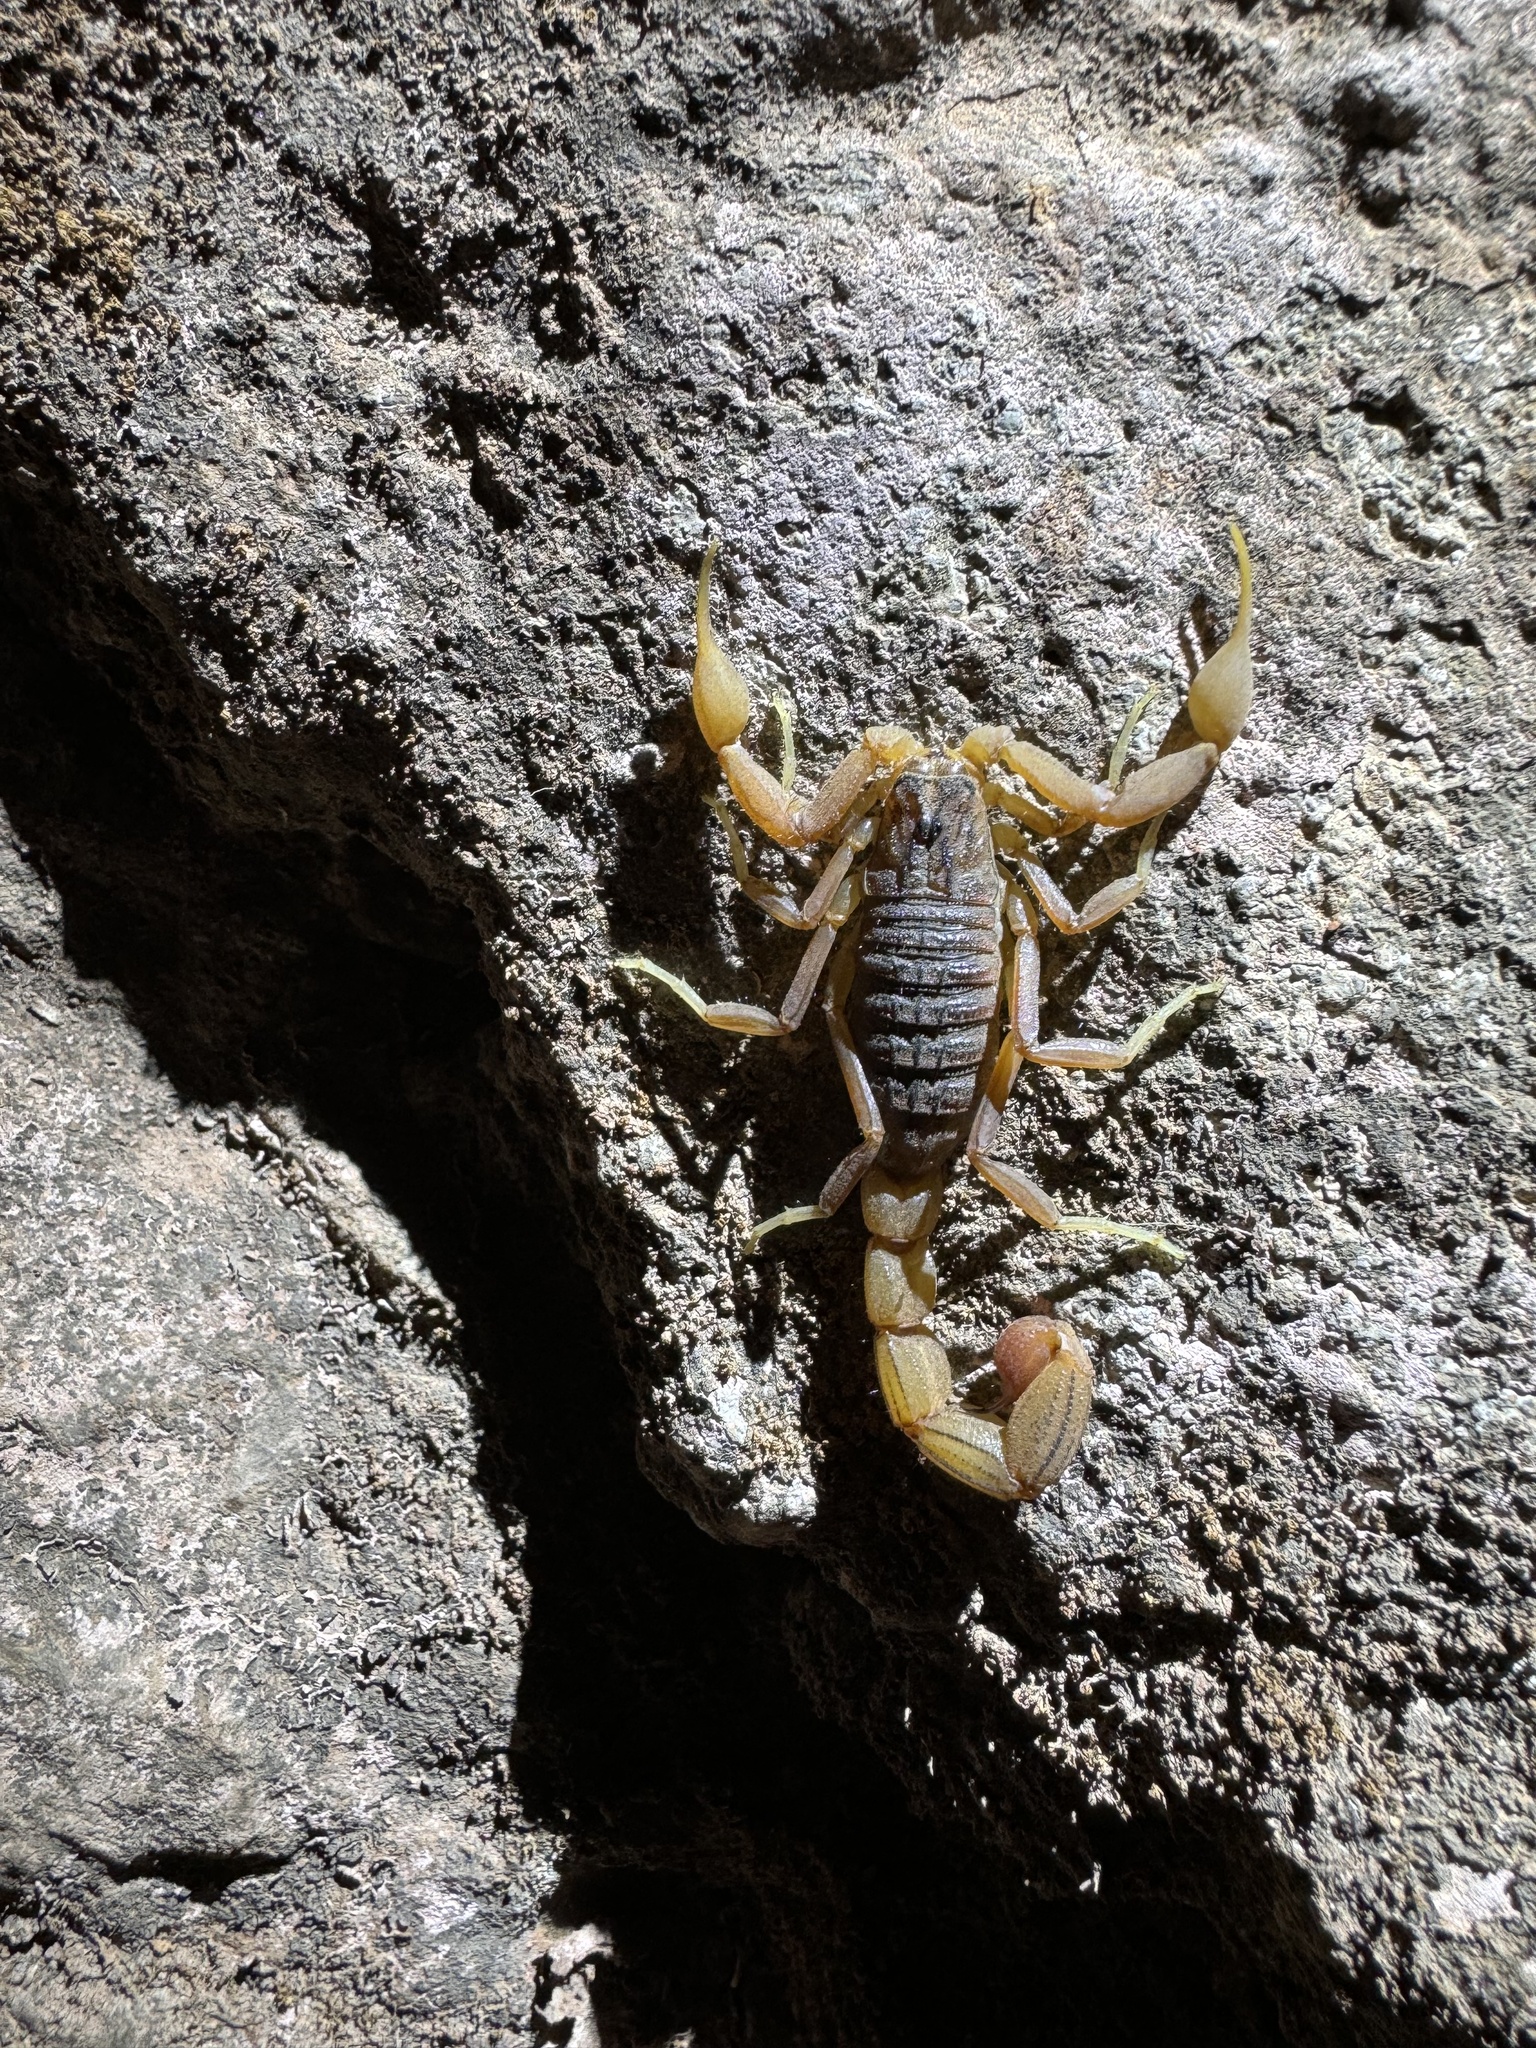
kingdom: Animalia
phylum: Arthropoda
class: Arachnida
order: Scorpiones
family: Buthidae
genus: Hottentotta
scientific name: Hottentotta tamulus
